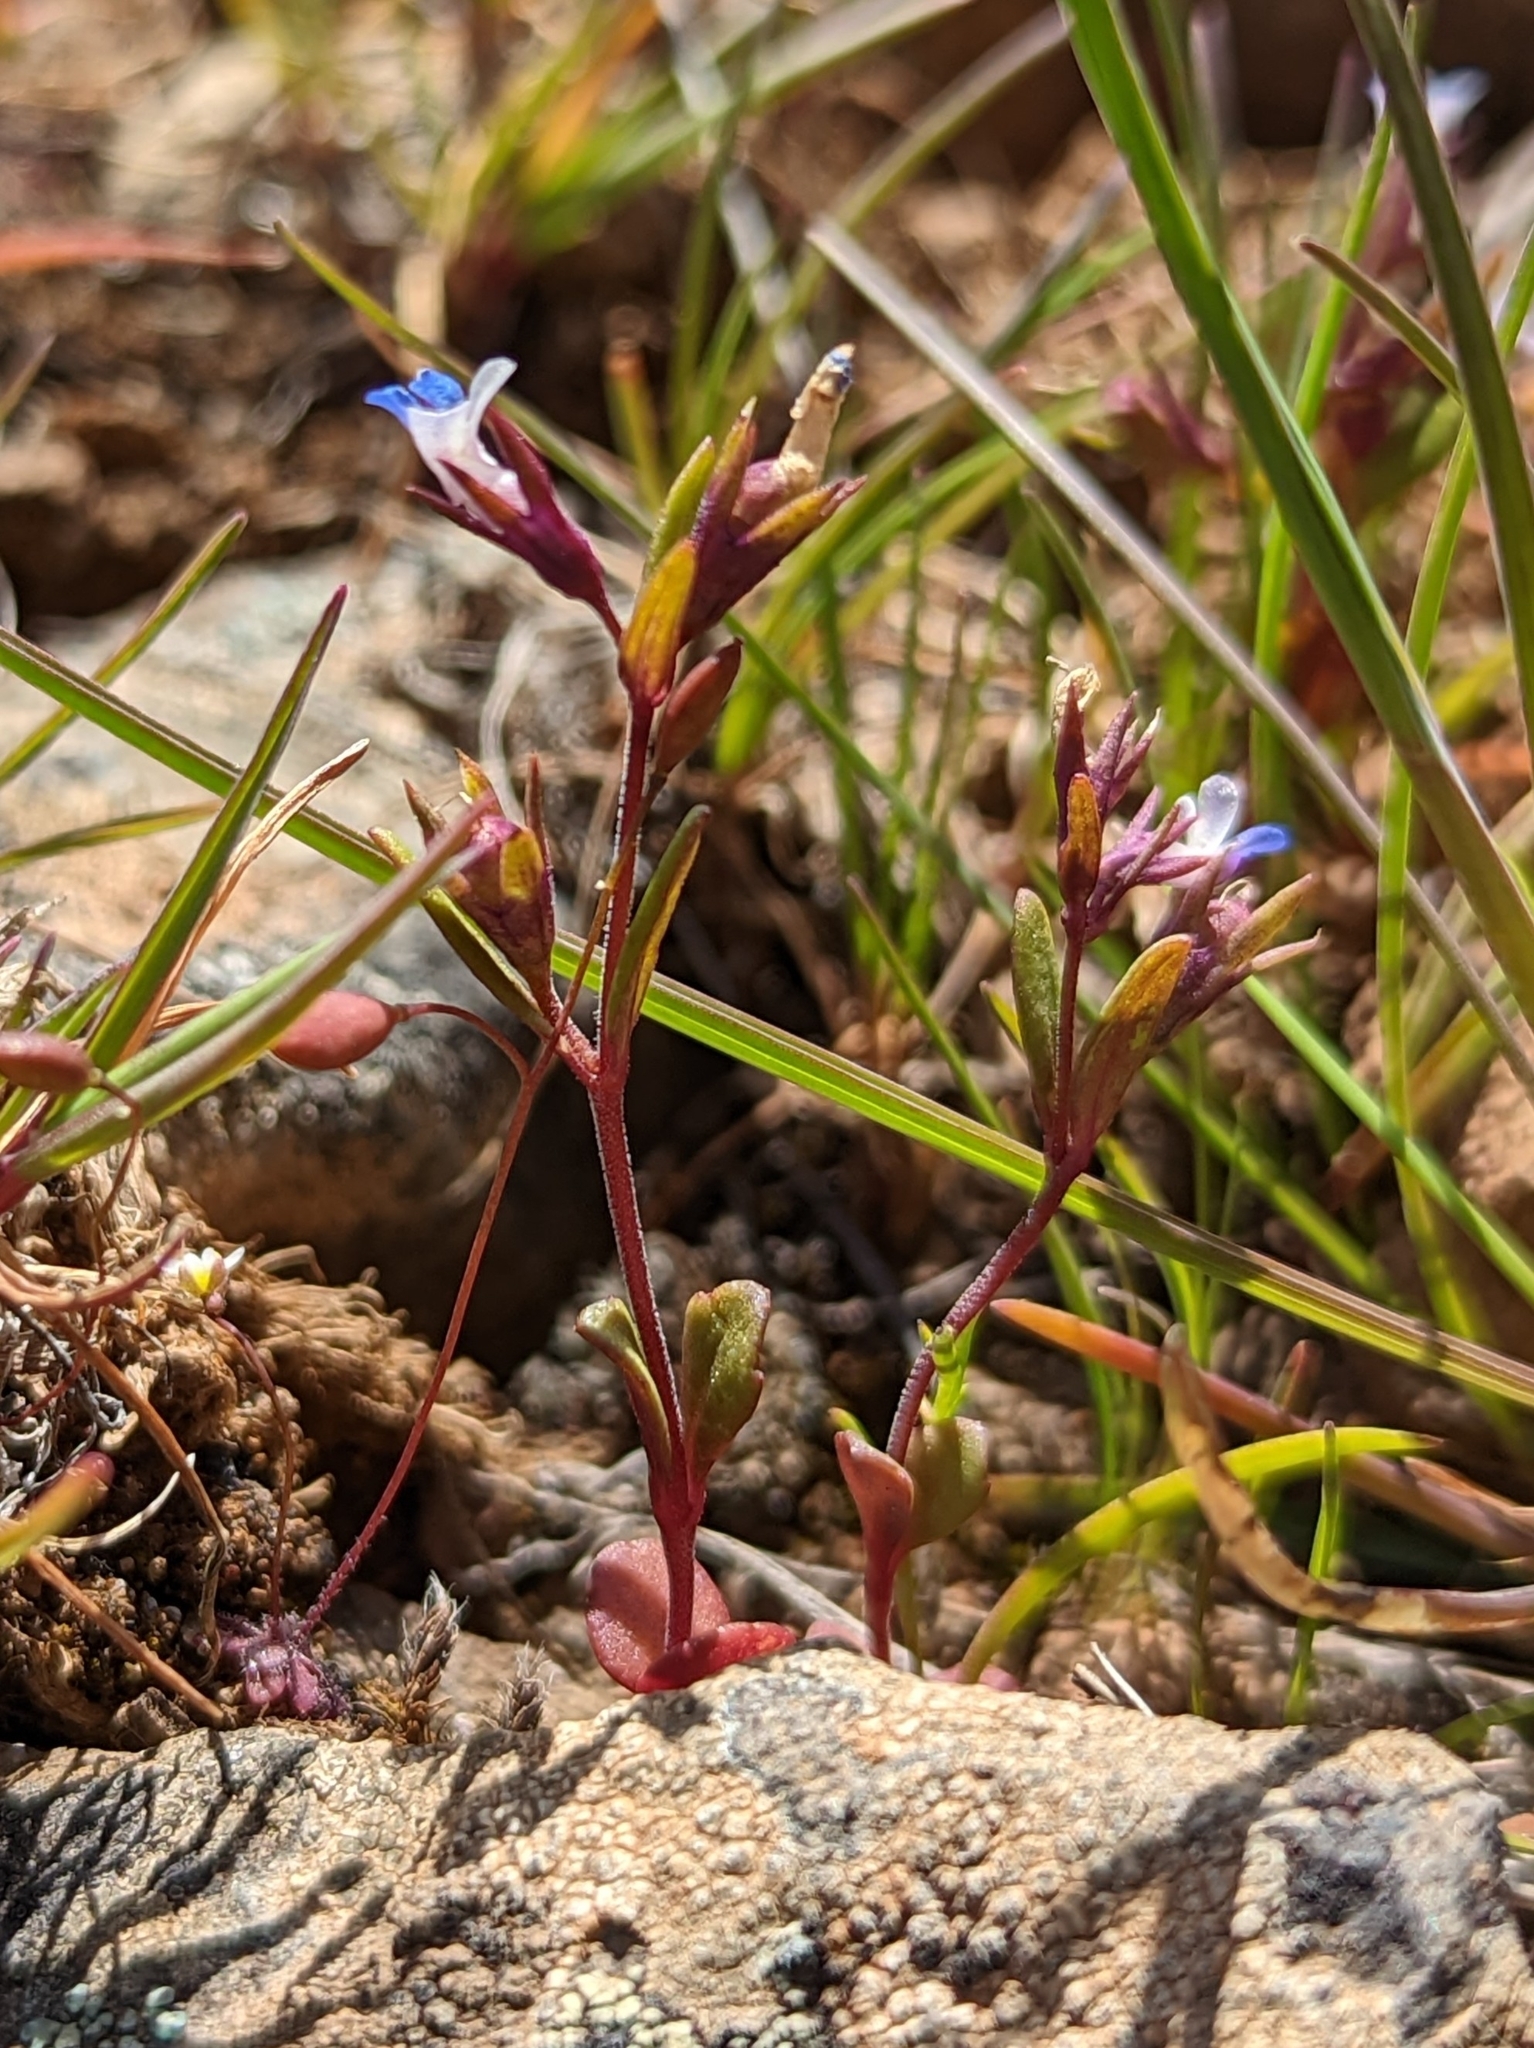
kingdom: Plantae
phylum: Tracheophyta
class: Magnoliopsida
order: Lamiales
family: Plantaginaceae
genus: Collinsia
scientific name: Collinsia parviflora
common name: Blue-lips
